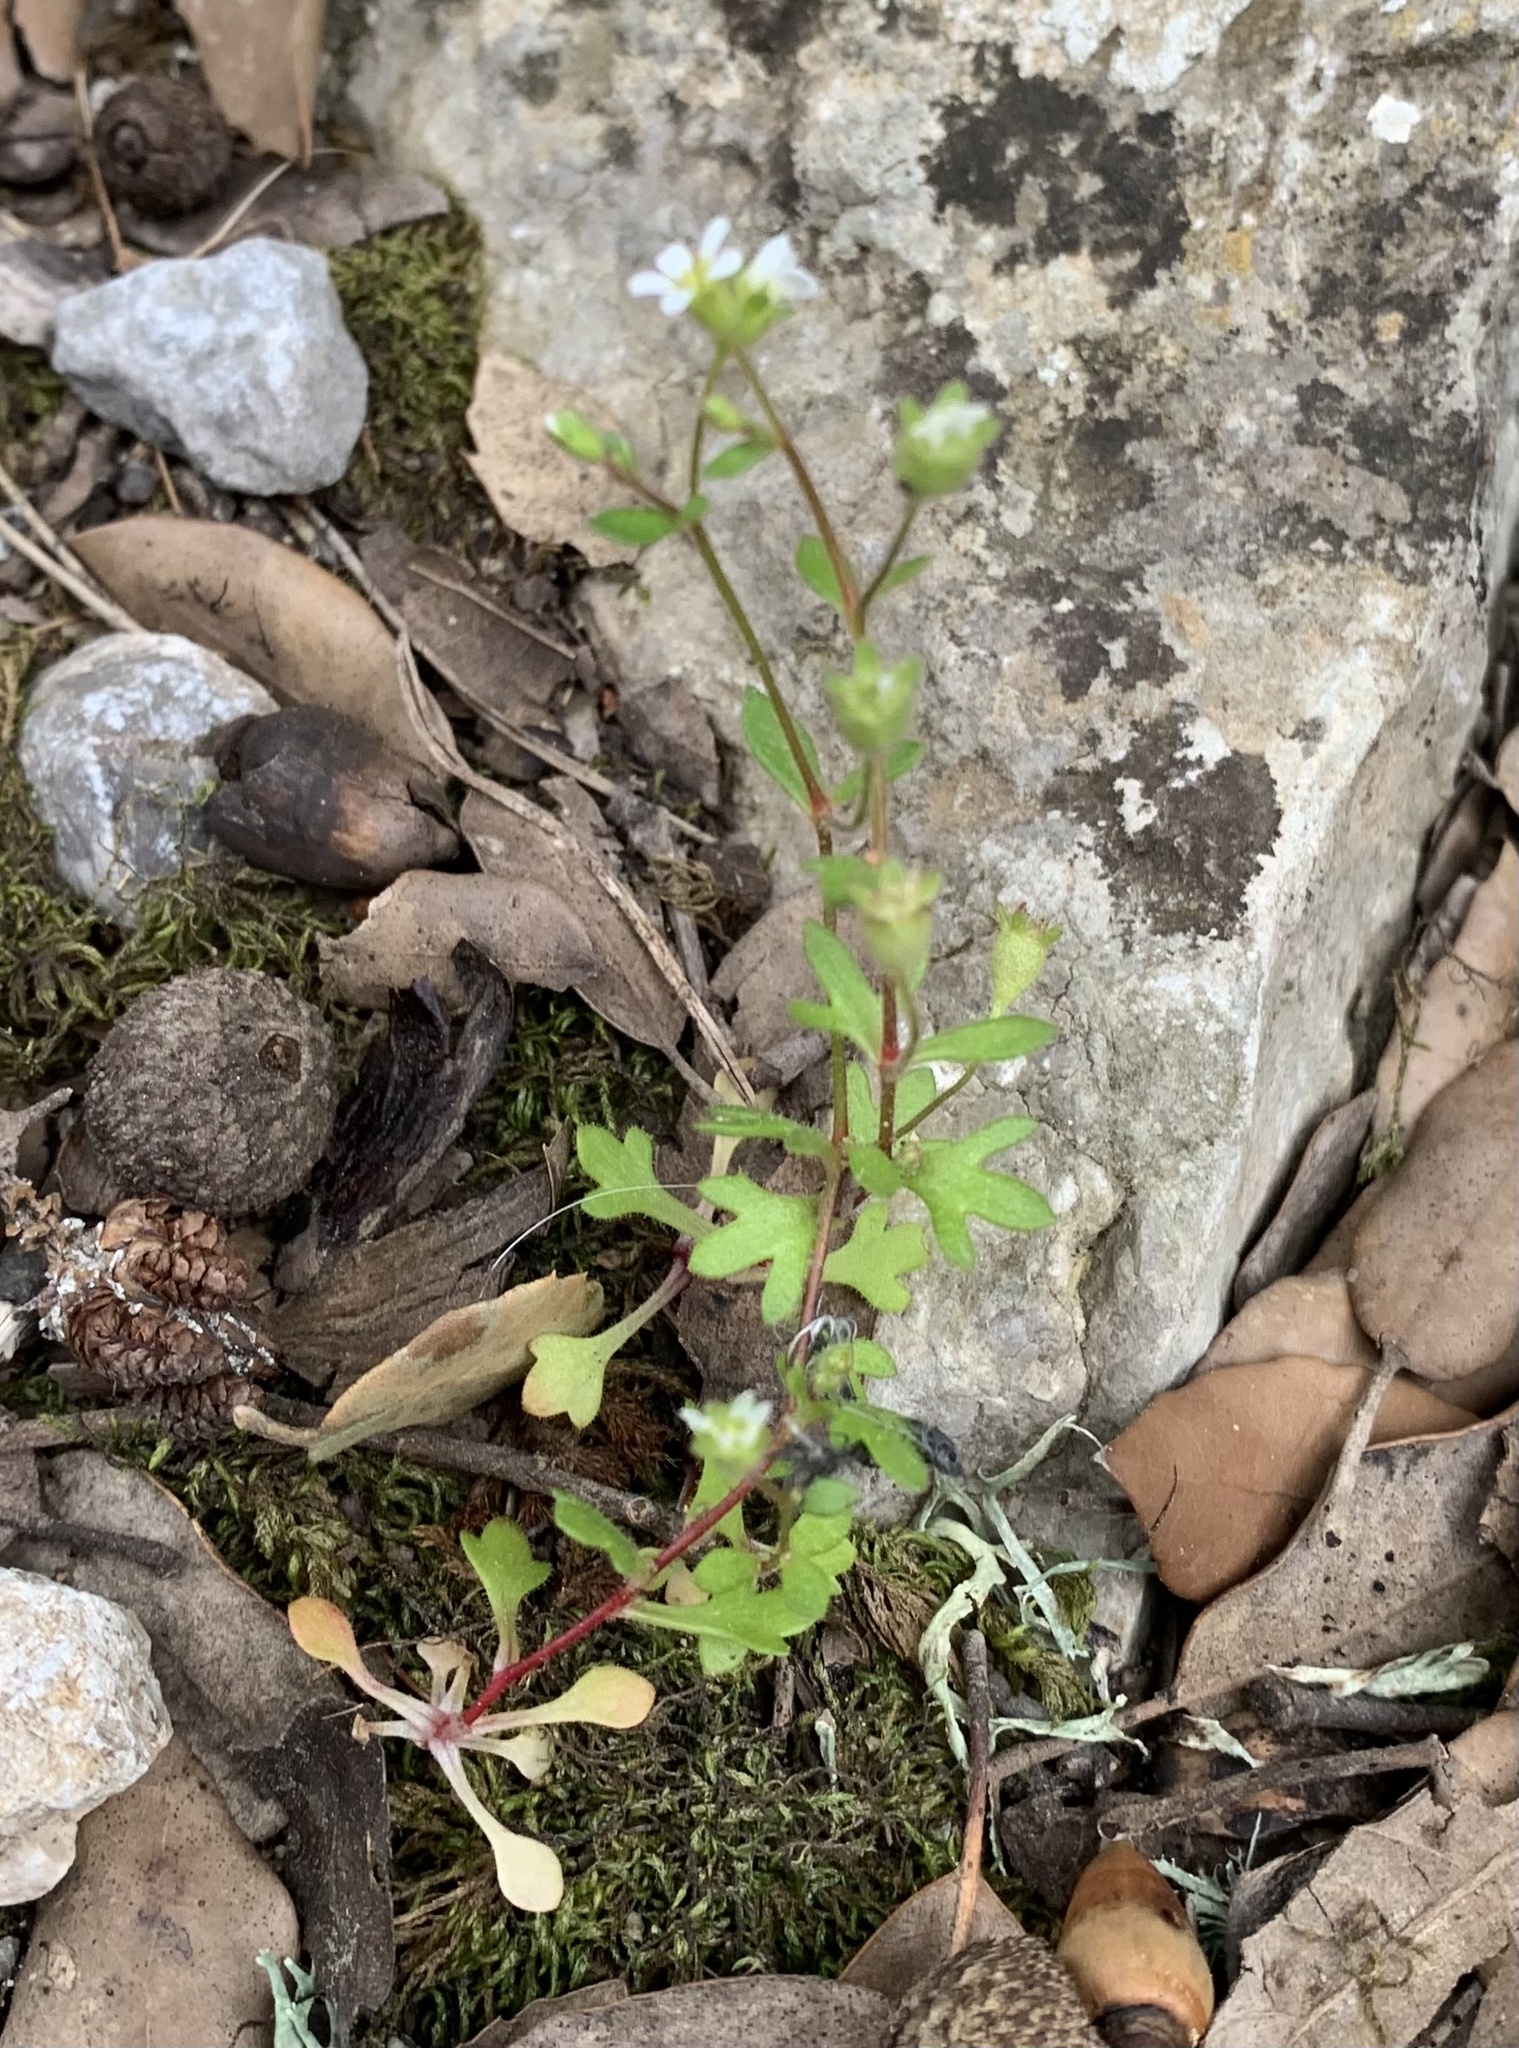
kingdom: Plantae
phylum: Tracheophyta
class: Magnoliopsida
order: Saxifragales
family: Saxifragaceae
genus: Saxifraga
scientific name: Saxifraga tridactylites
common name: Rue-leaved saxifrage
